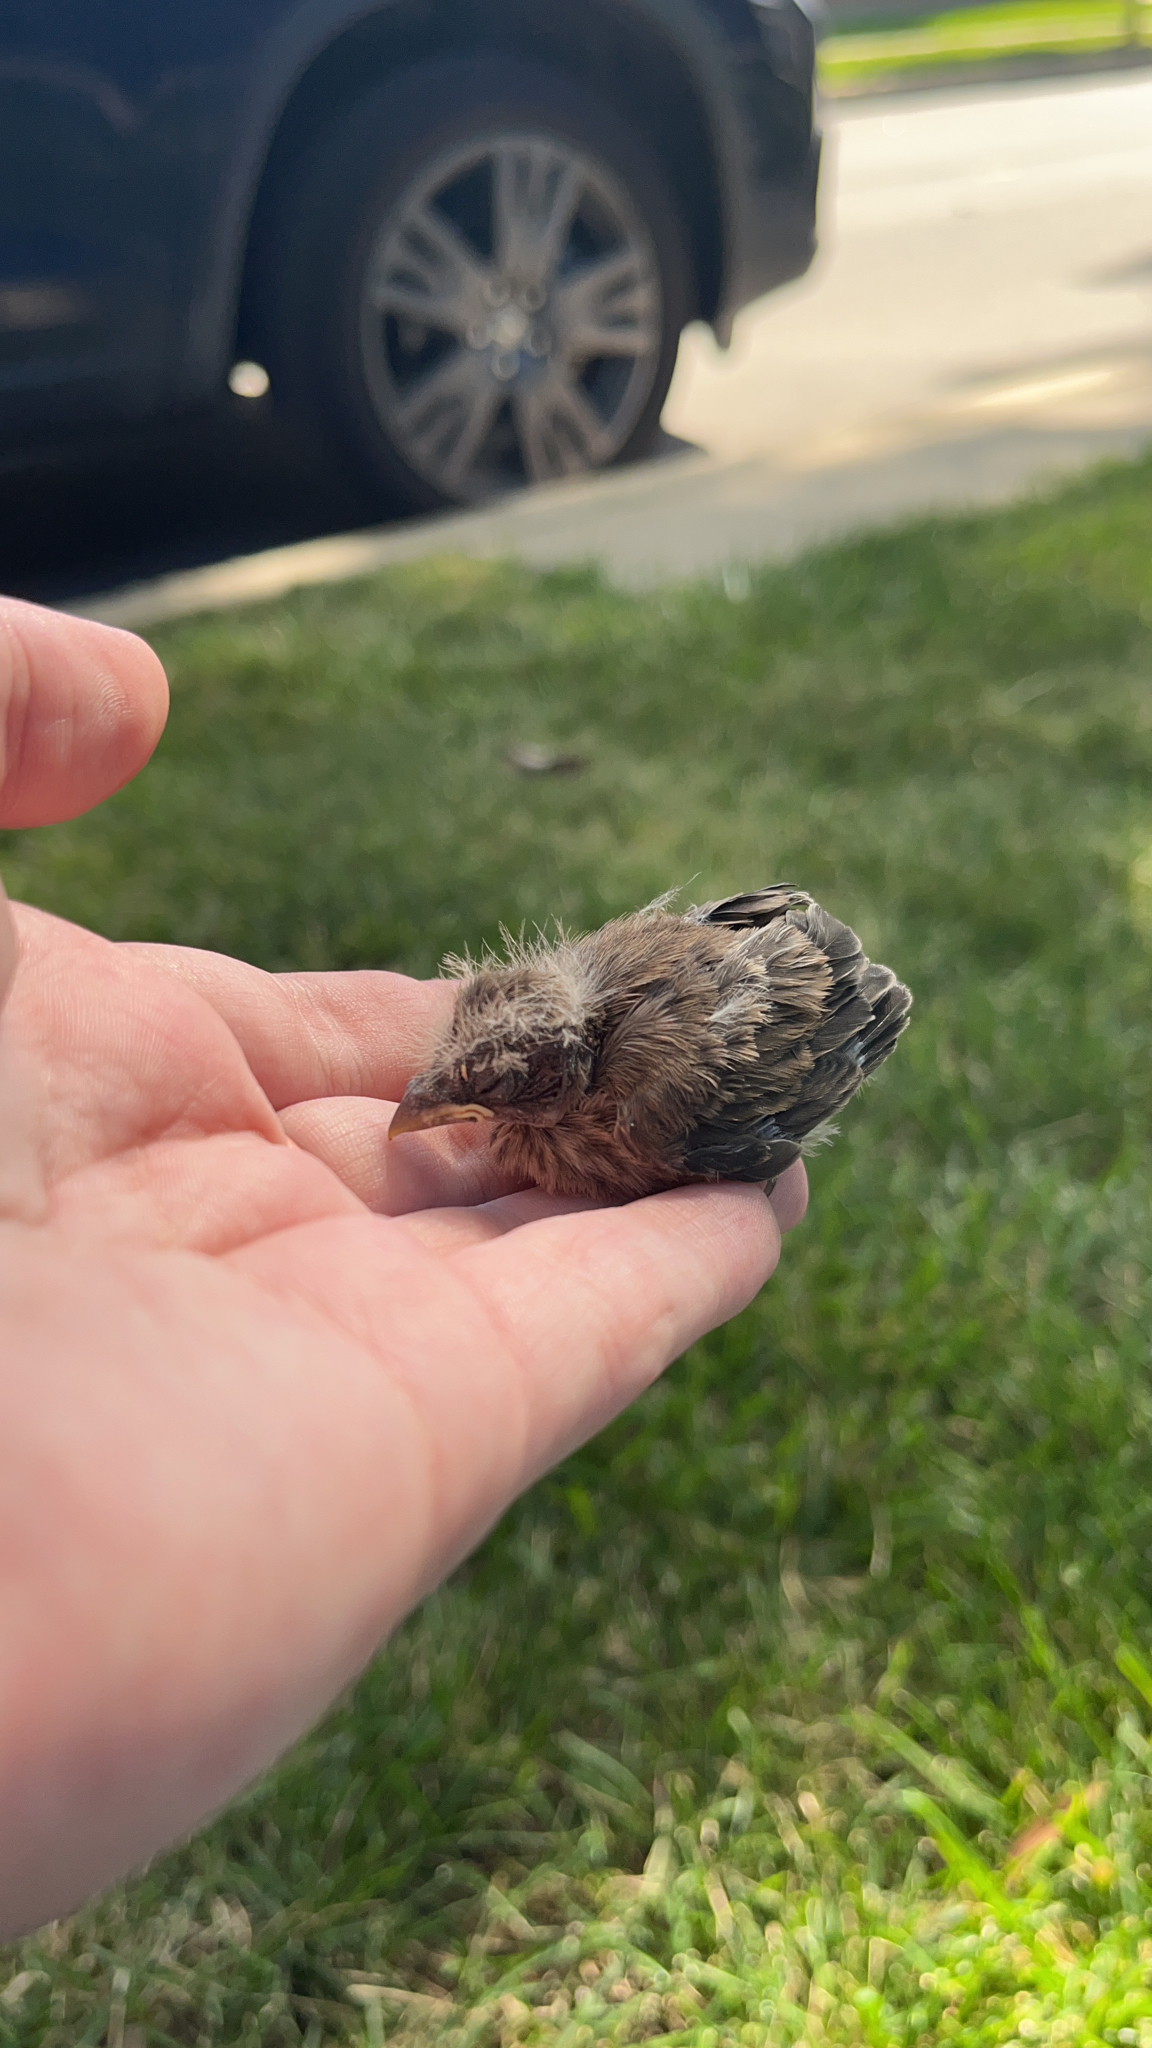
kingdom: Animalia
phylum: Chordata
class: Aves
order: Passeriformes
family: Fringillidae
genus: Haemorhous
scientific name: Haemorhous mexicanus
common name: House finch
